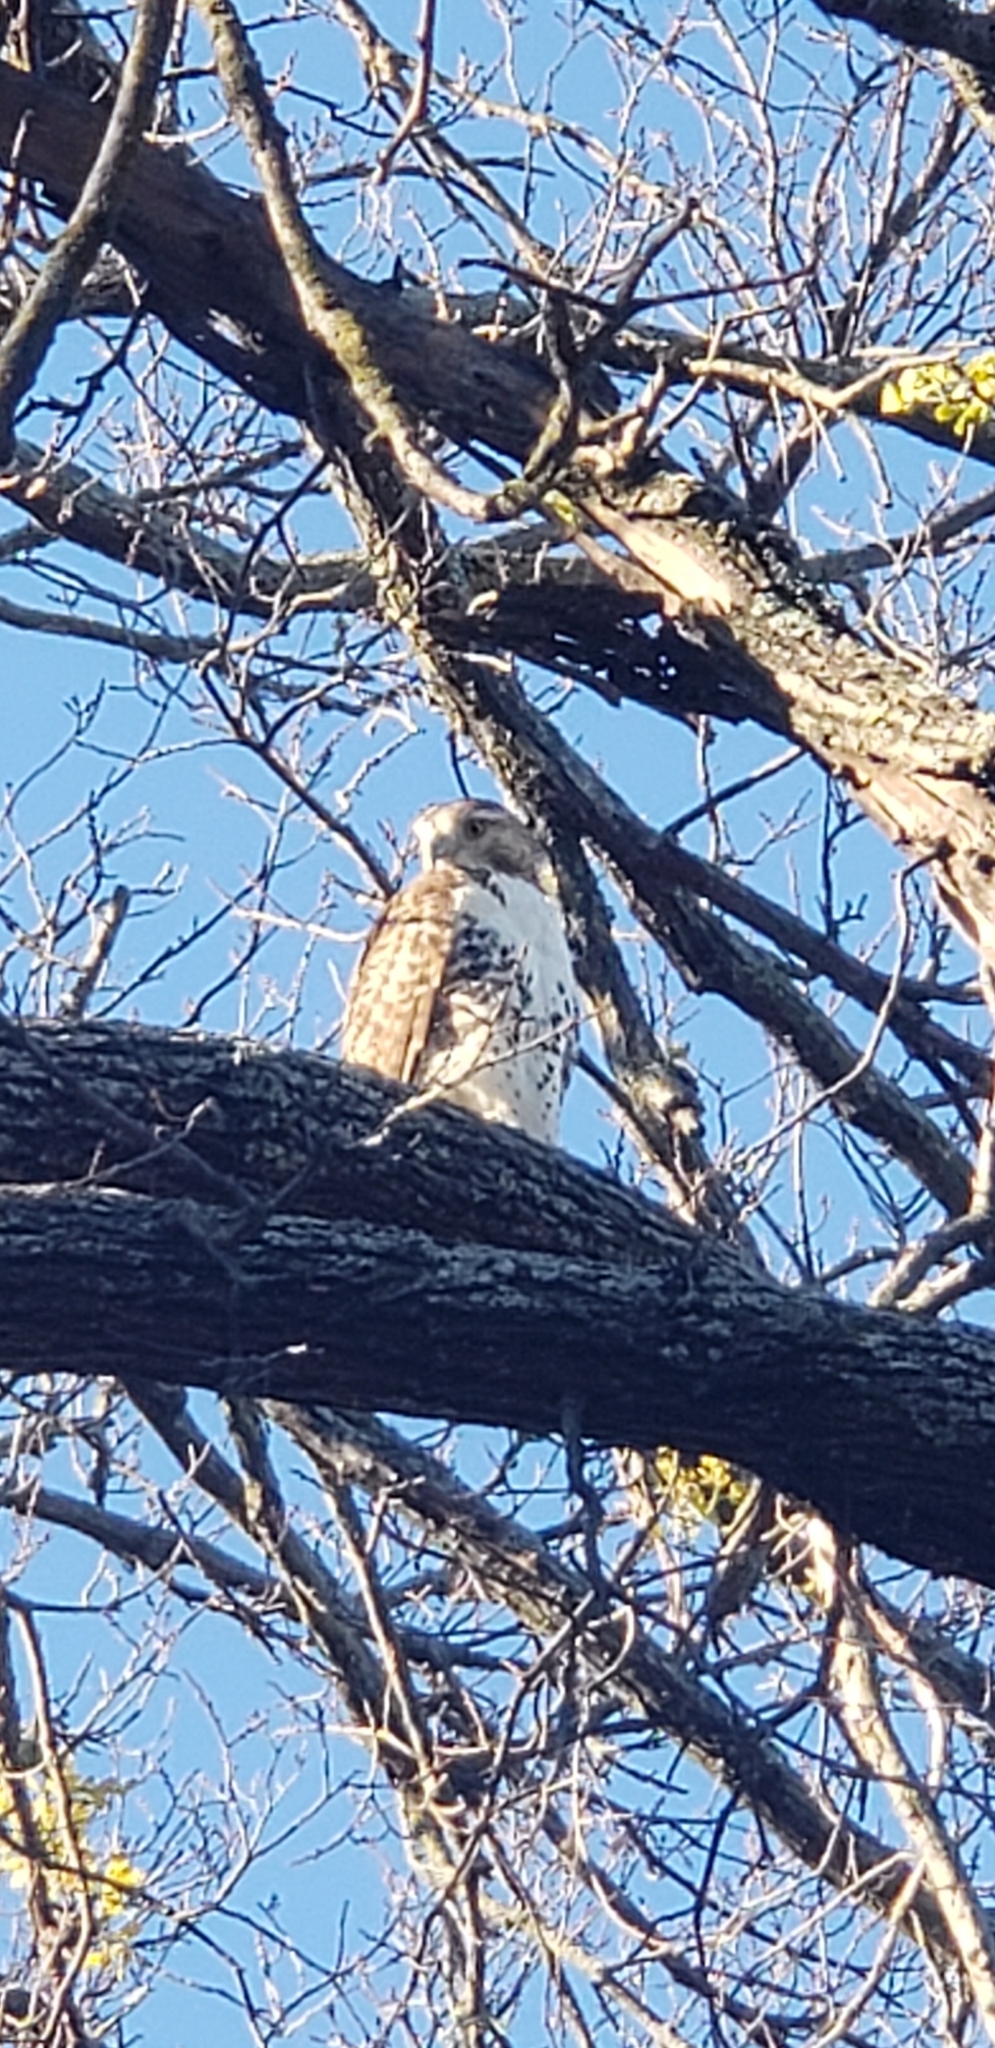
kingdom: Animalia
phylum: Chordata
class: Aves
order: Accipitriformes
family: Accipitridae
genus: Buteo
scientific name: Buteo jamaicensis
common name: Red-tailed hawk
